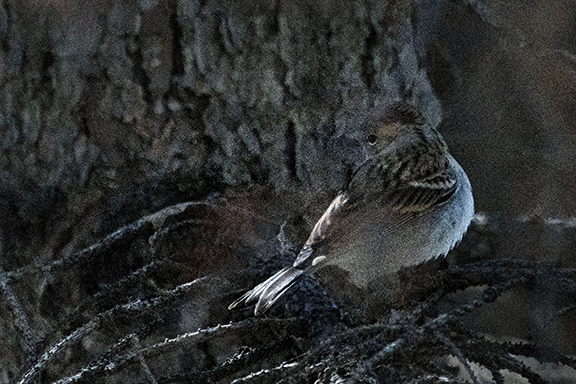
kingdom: Animalia
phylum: Chordata
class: Aves
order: Passeriformes
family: Passerellidae
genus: Spizella
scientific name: Spizella passerina
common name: Chipping sparrow
